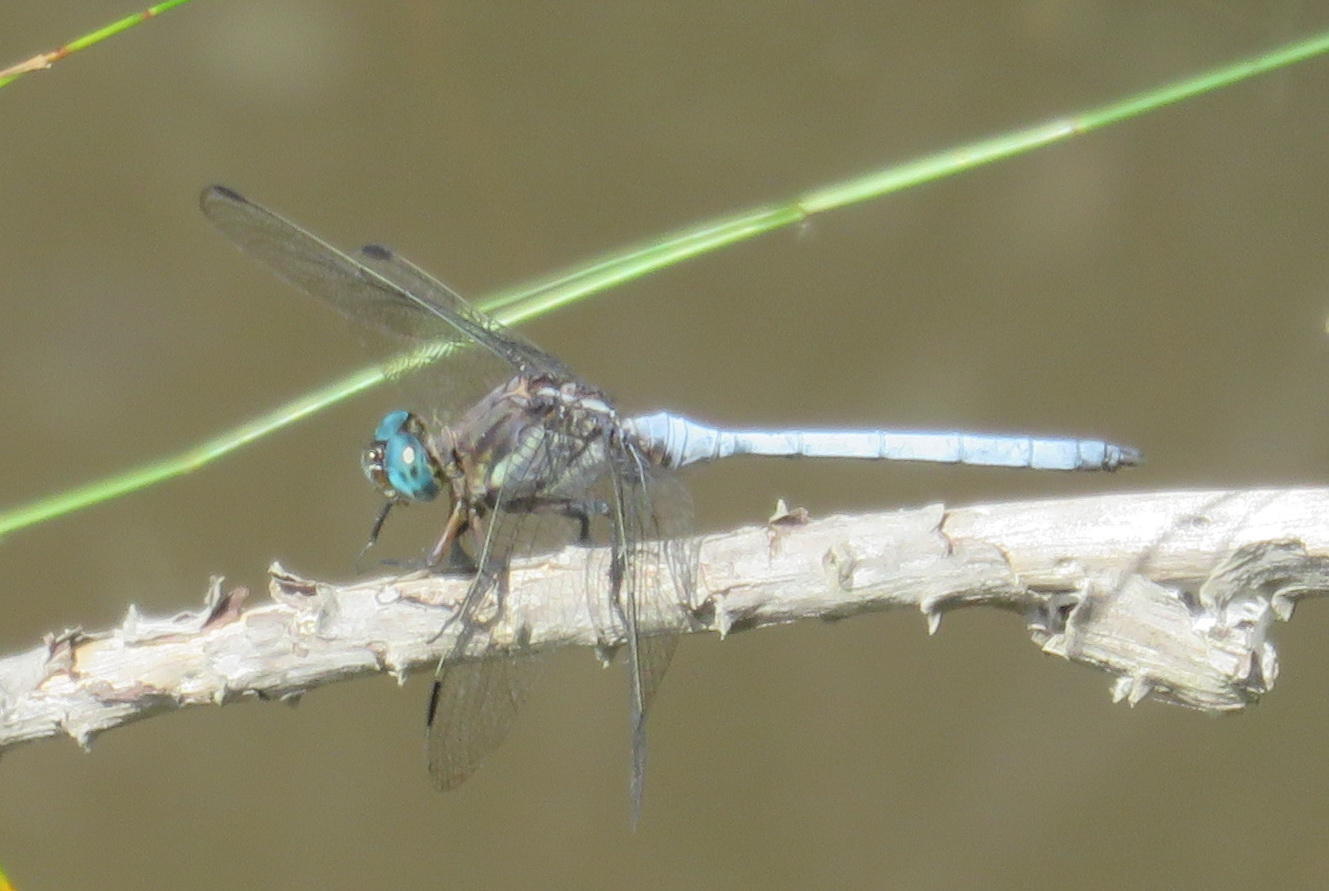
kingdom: Animalia
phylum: Arthropoda
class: Insecta
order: Odonata
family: Libellulidae
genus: Orthetrum
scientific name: Orthetrum caffrum
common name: Two-striped skimmer
